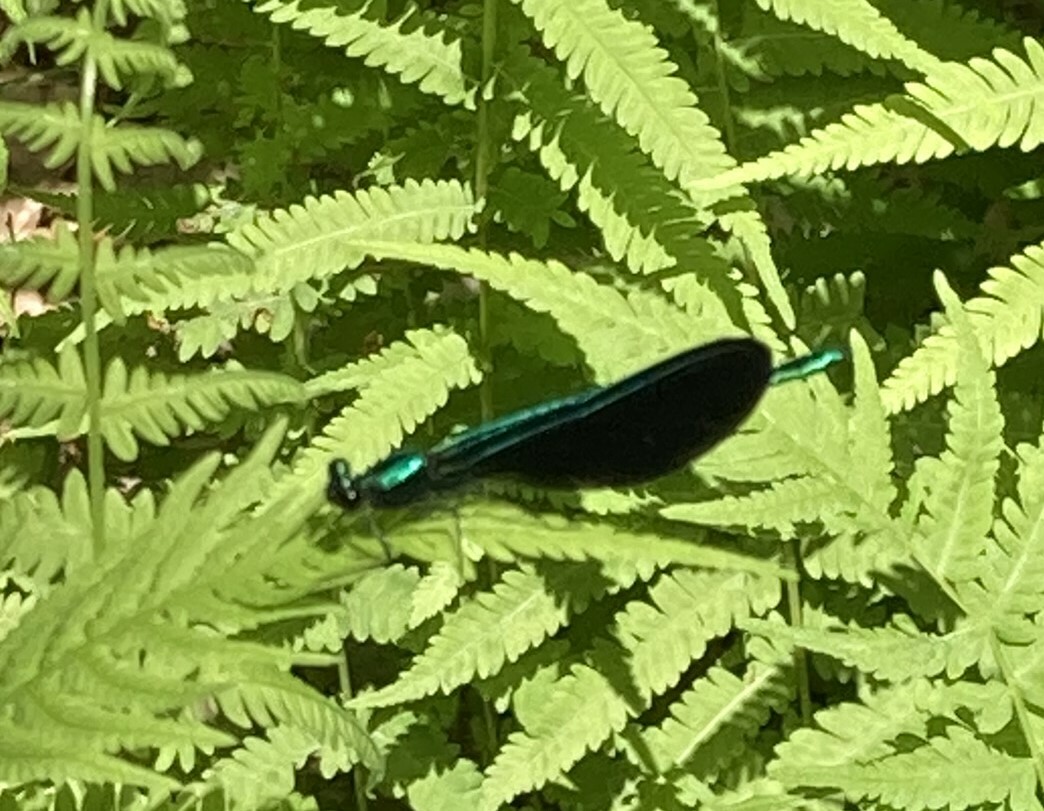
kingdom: Animalia
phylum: Arthropoda
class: Insecta
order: Odonata
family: Calopterygidae
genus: Calopteryx
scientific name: Calopteryx maculata
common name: Ebony jewelwing
